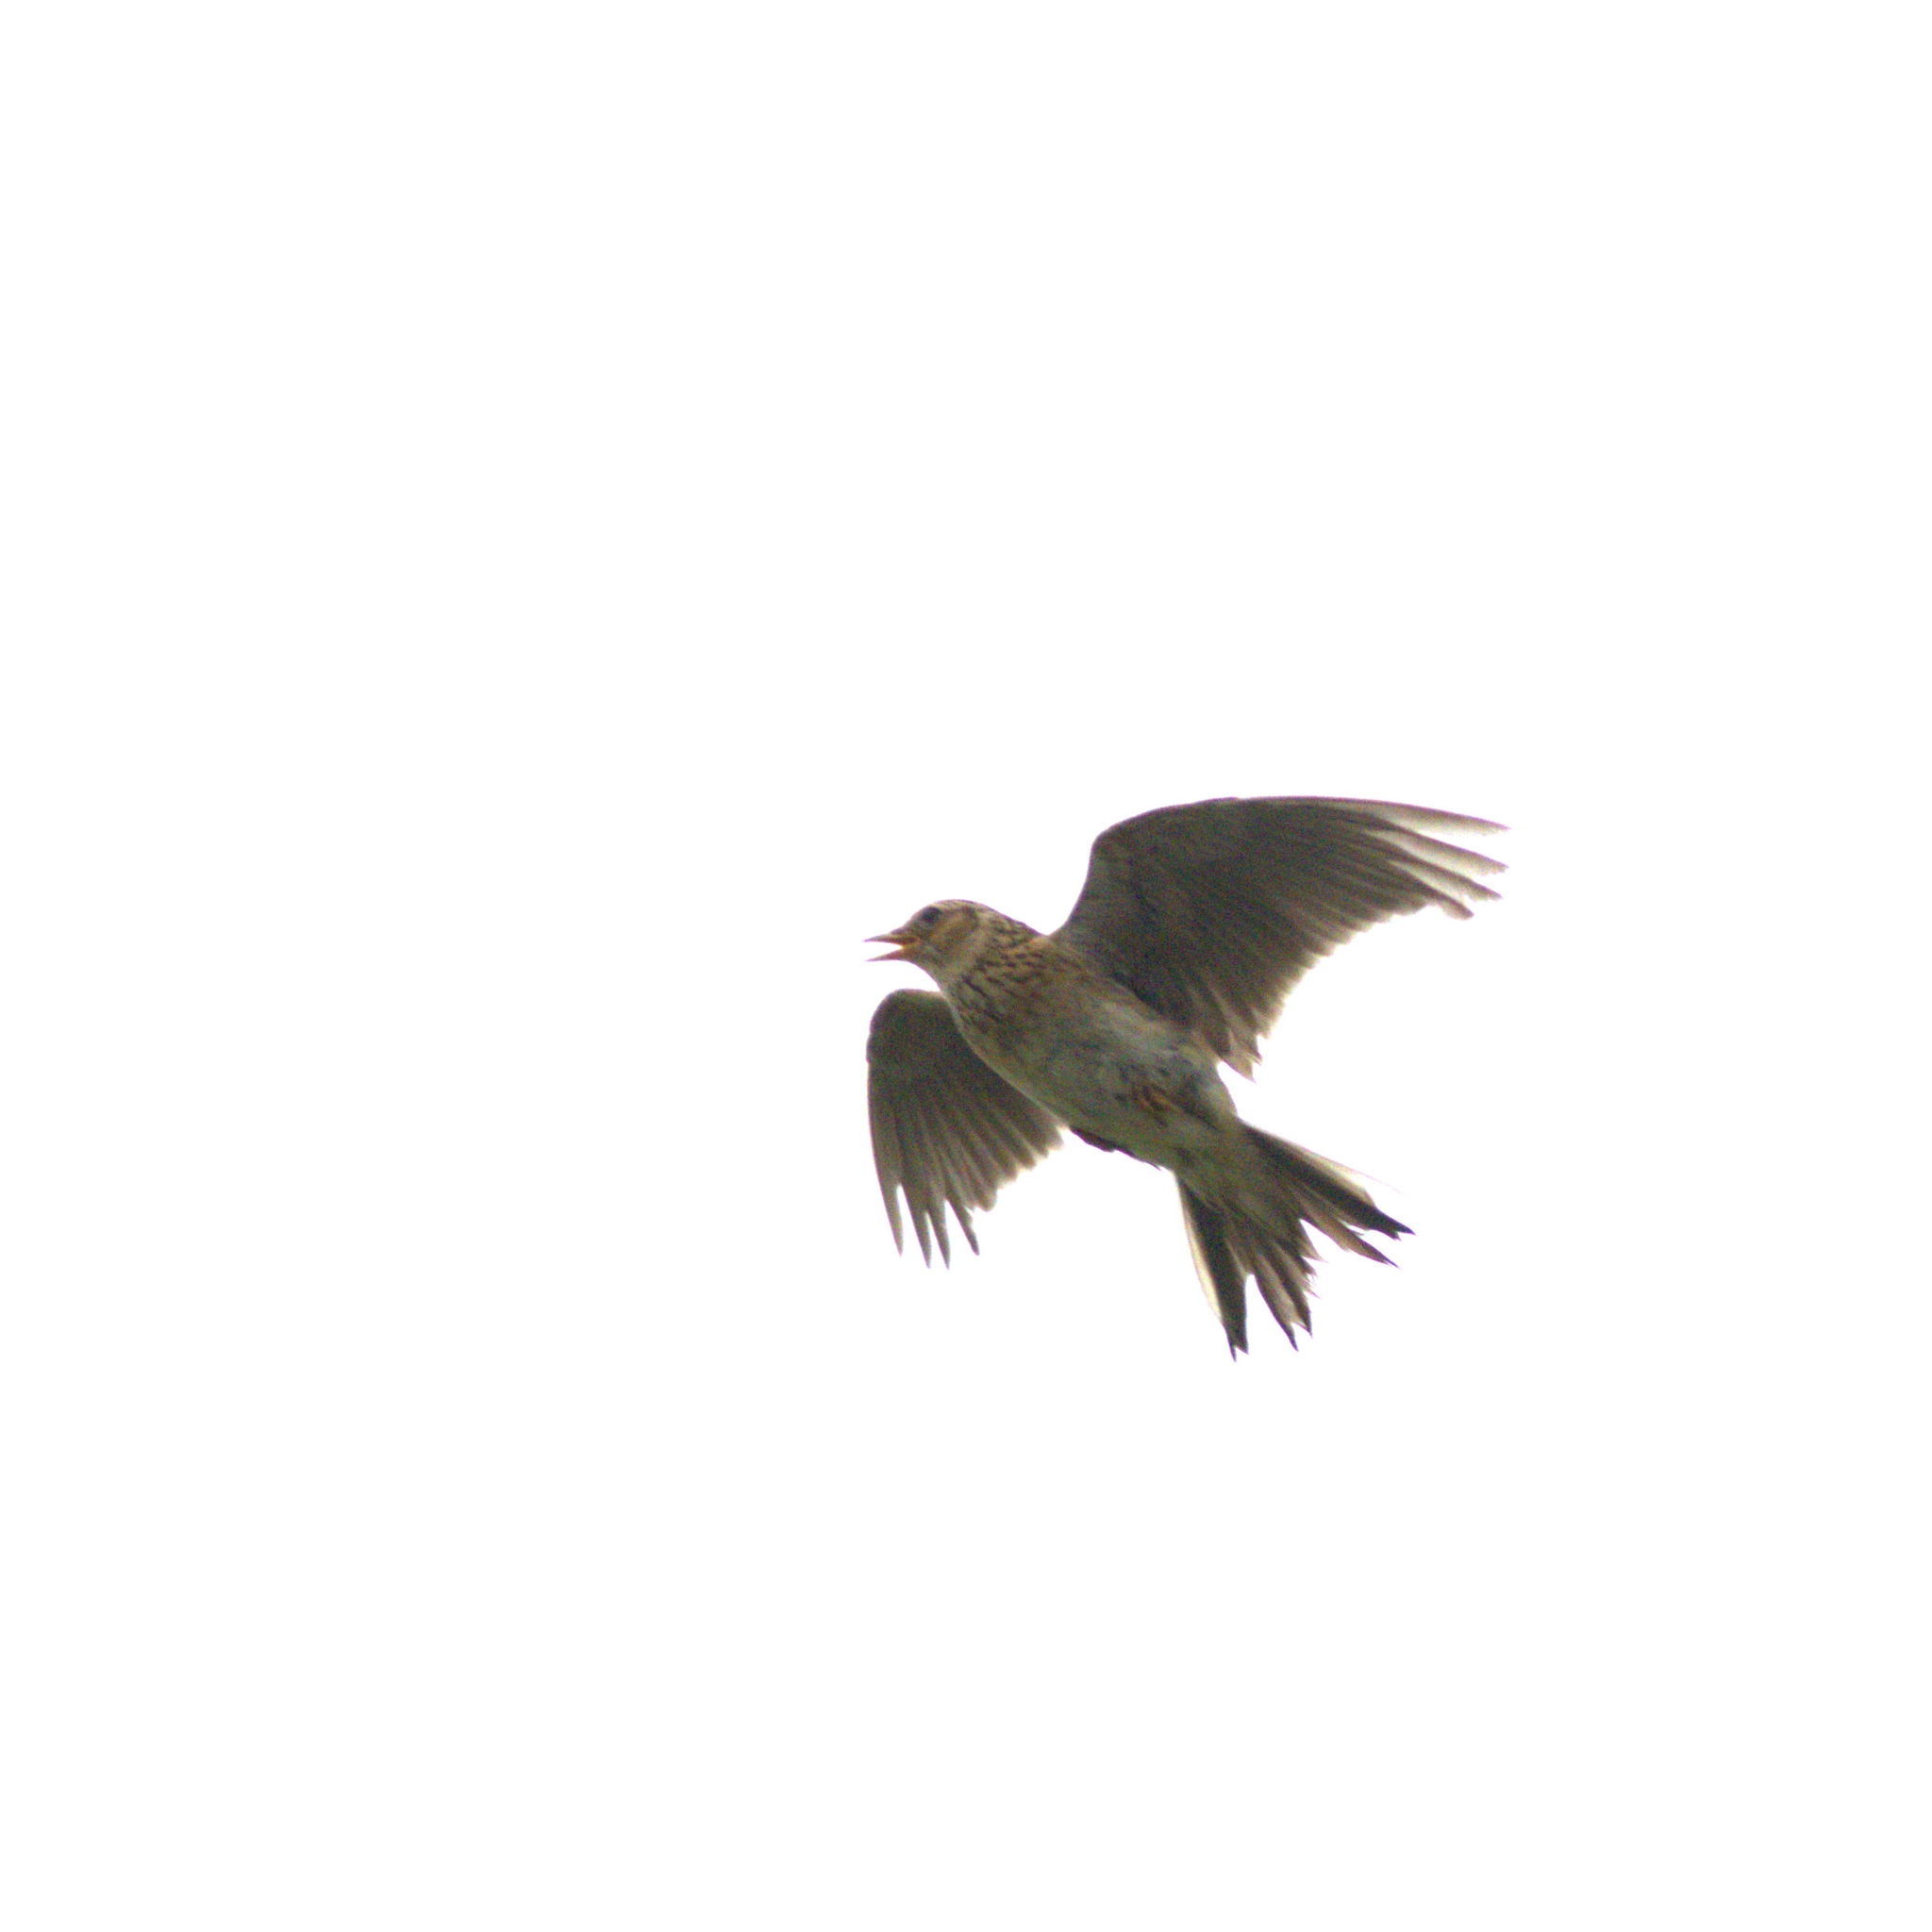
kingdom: Animalia
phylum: Chordata
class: Aves
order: Passeriformes
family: Alaudidae
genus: Alauda
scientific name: Alauda arvensis
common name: Eurasian skylark
